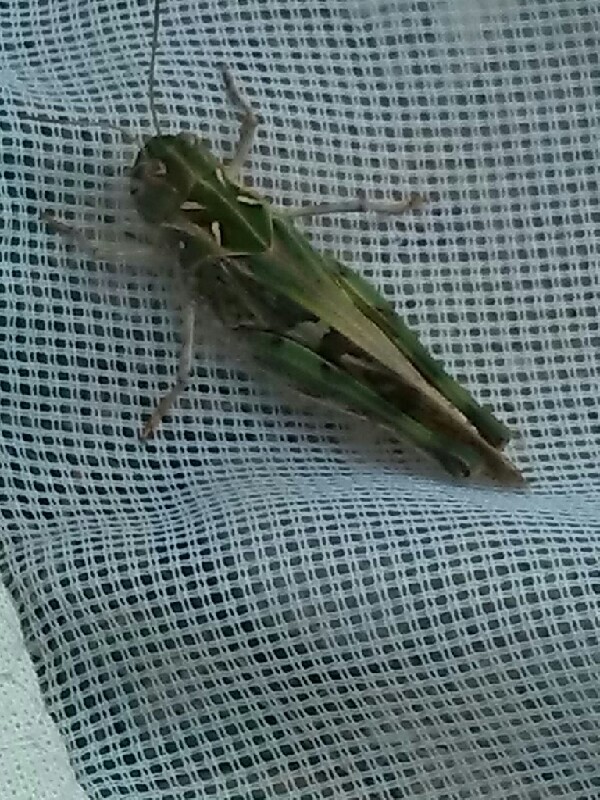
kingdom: Animalia
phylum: Arthropoda
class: Insecta
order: Orthoptera
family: Acrididae
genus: Oedaleus
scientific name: Oedaleus decorus
